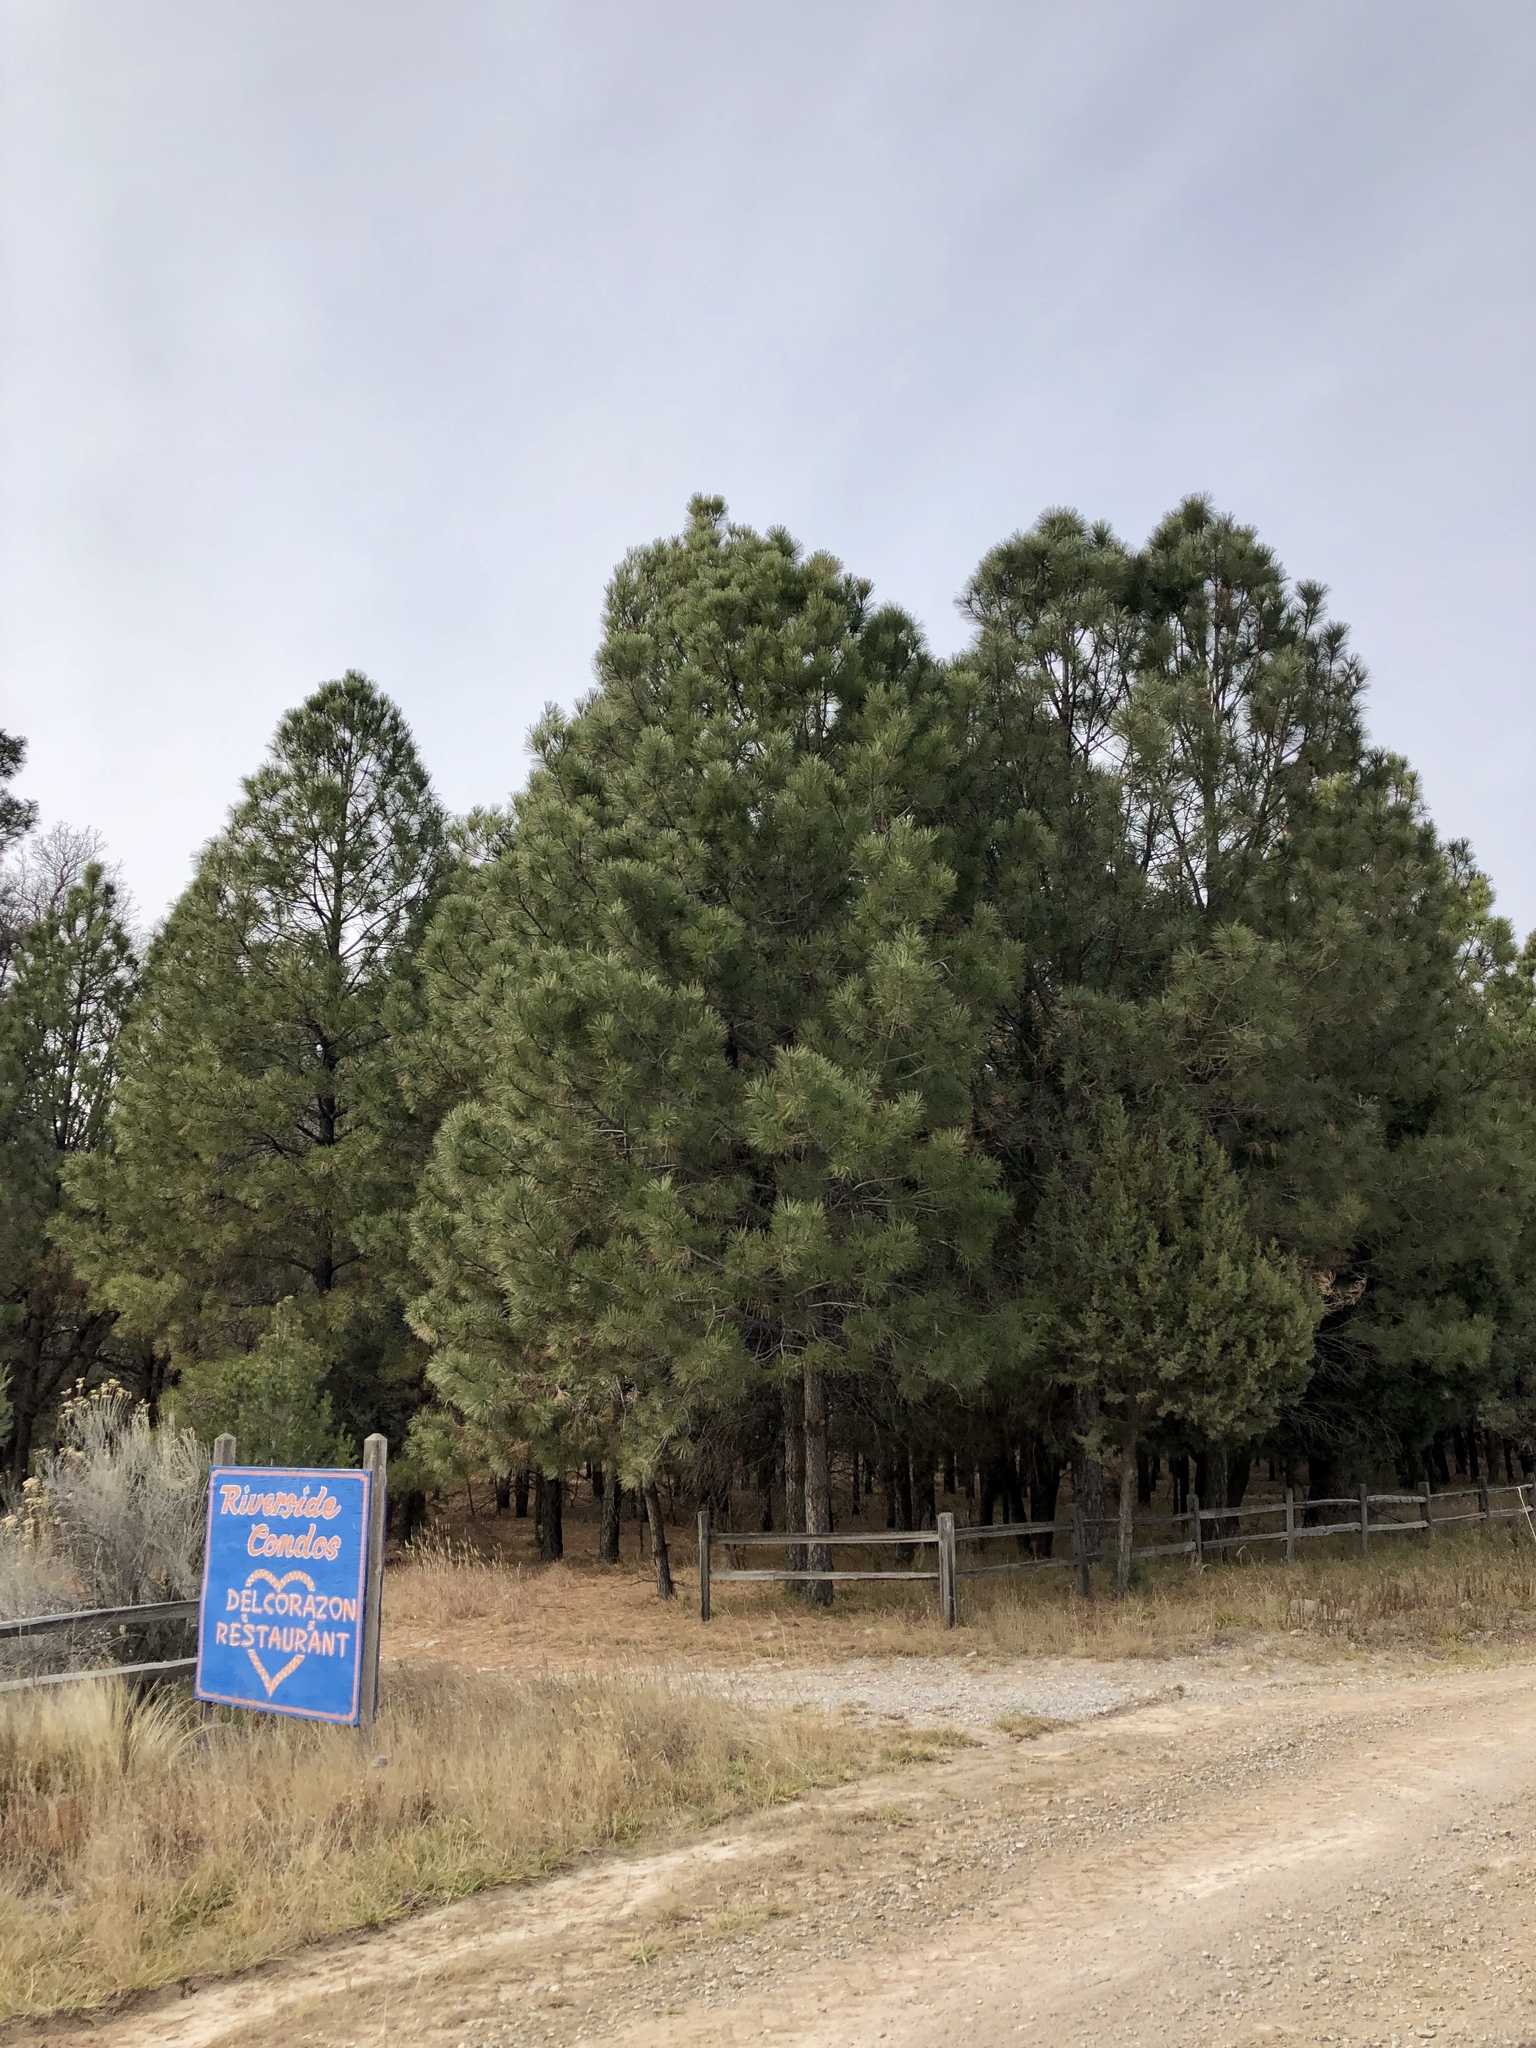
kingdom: Plantae
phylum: Tracheophyta
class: Pinopsida
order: Pinales
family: Pinaceae
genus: Pinus
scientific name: Pinus ponderosa
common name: Western yellow-pine
